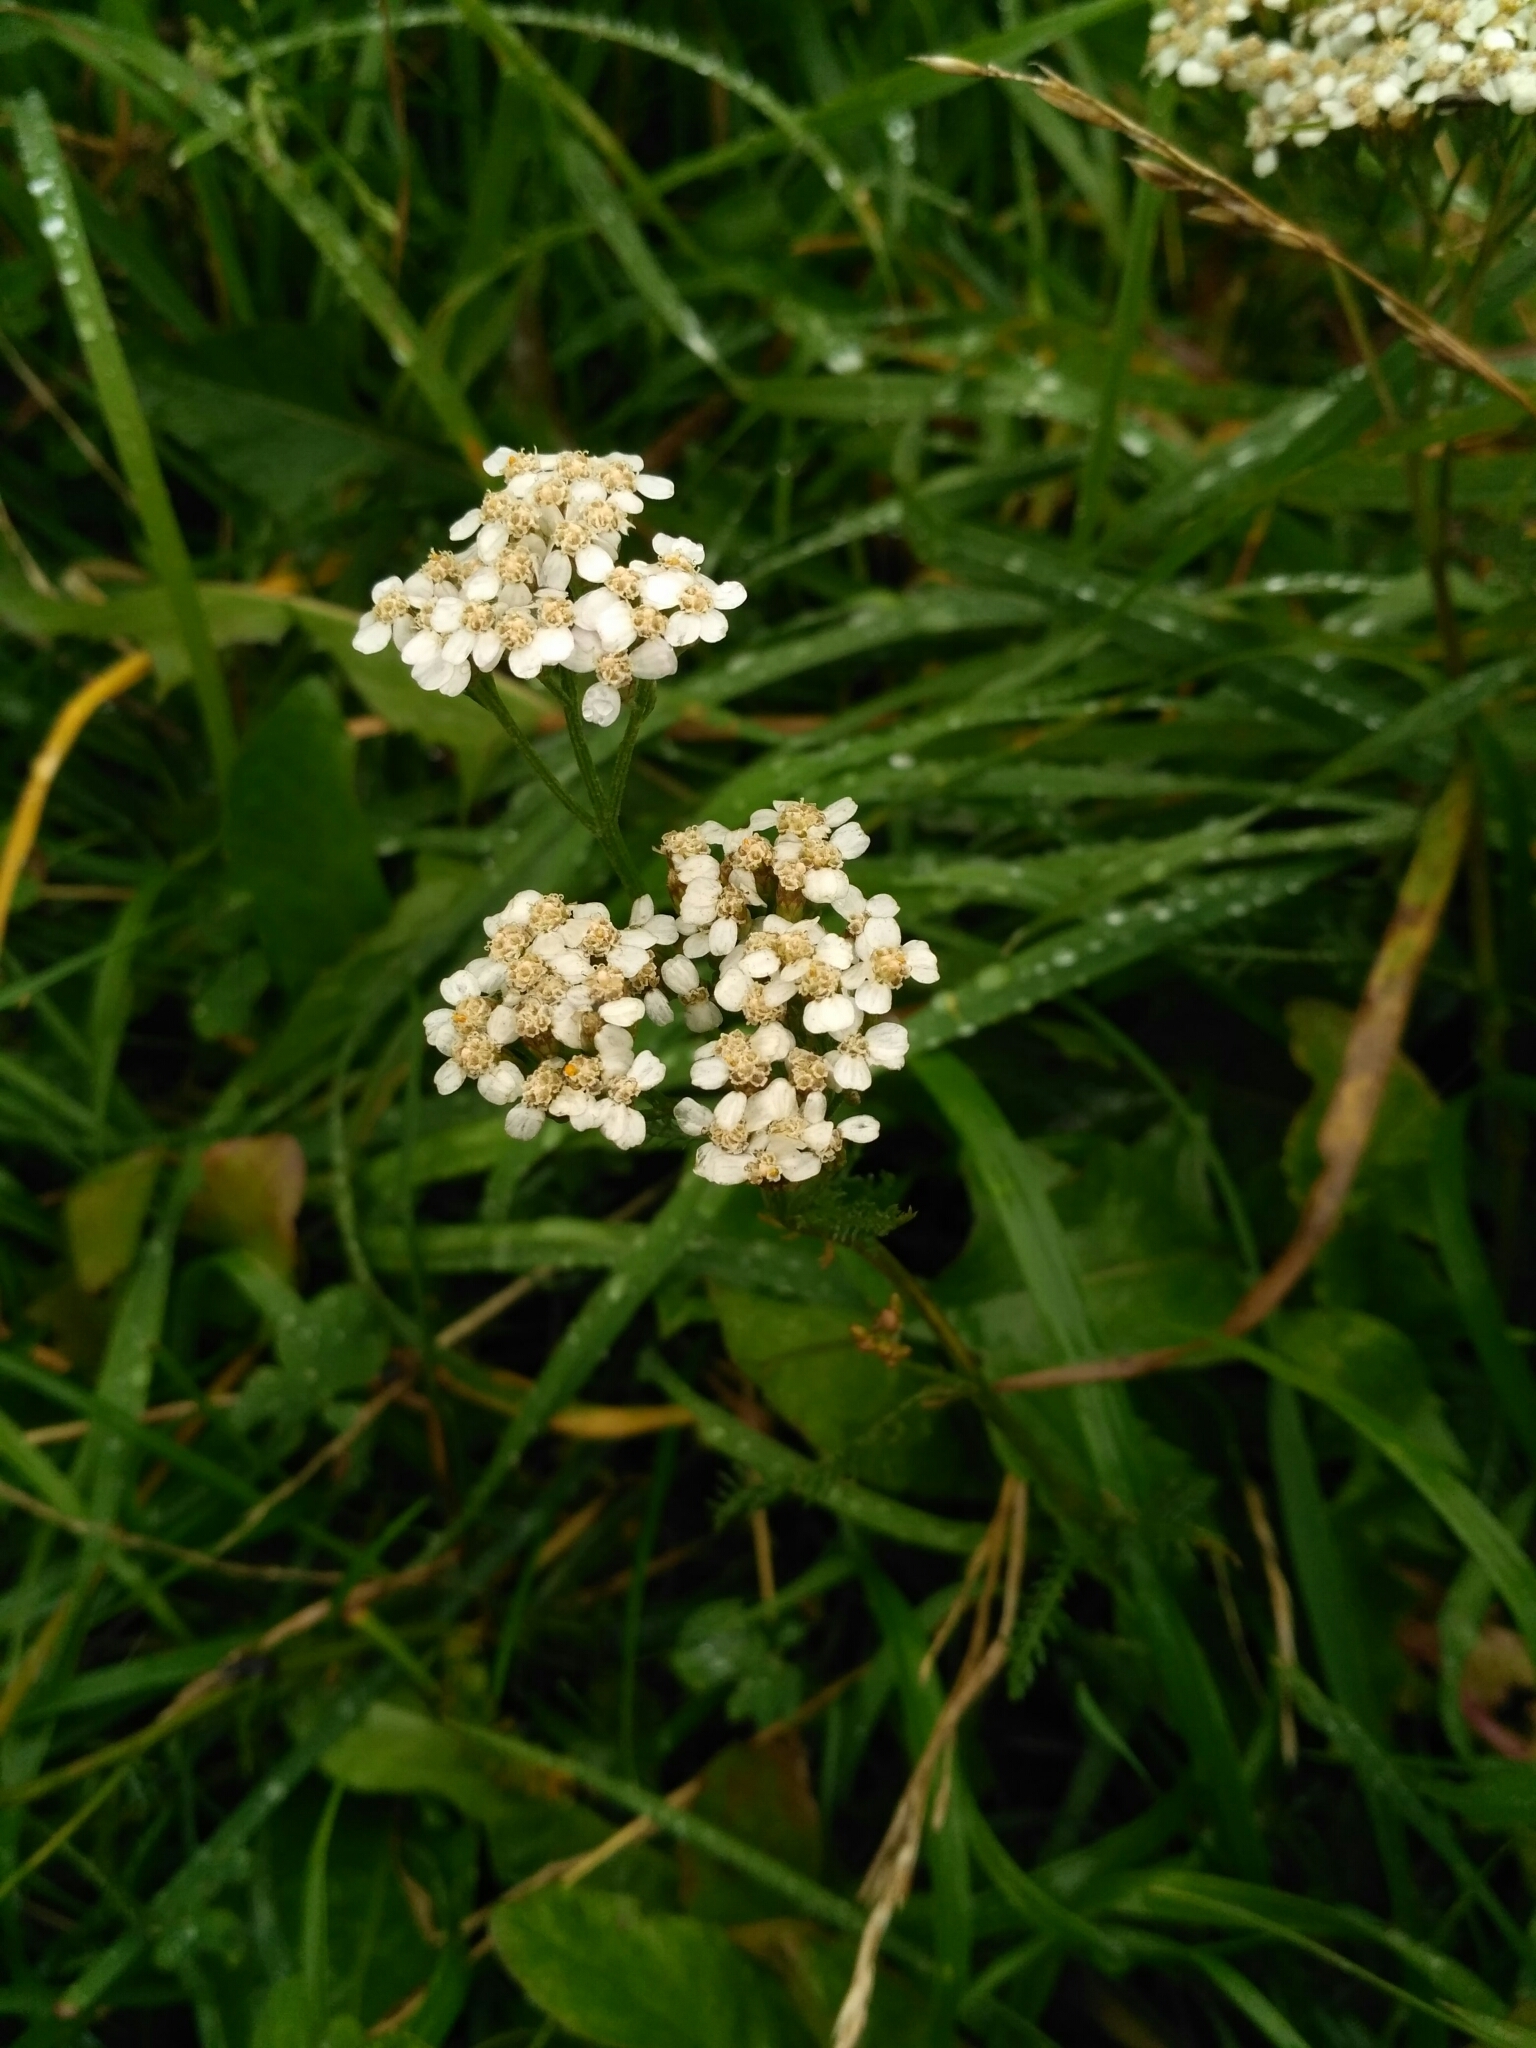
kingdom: Plantae
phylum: Tracheophyta
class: Magnoliopsida
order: Asterales
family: Asteraceae
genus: Achillea
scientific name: Achillea millefolium
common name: Yarrow
